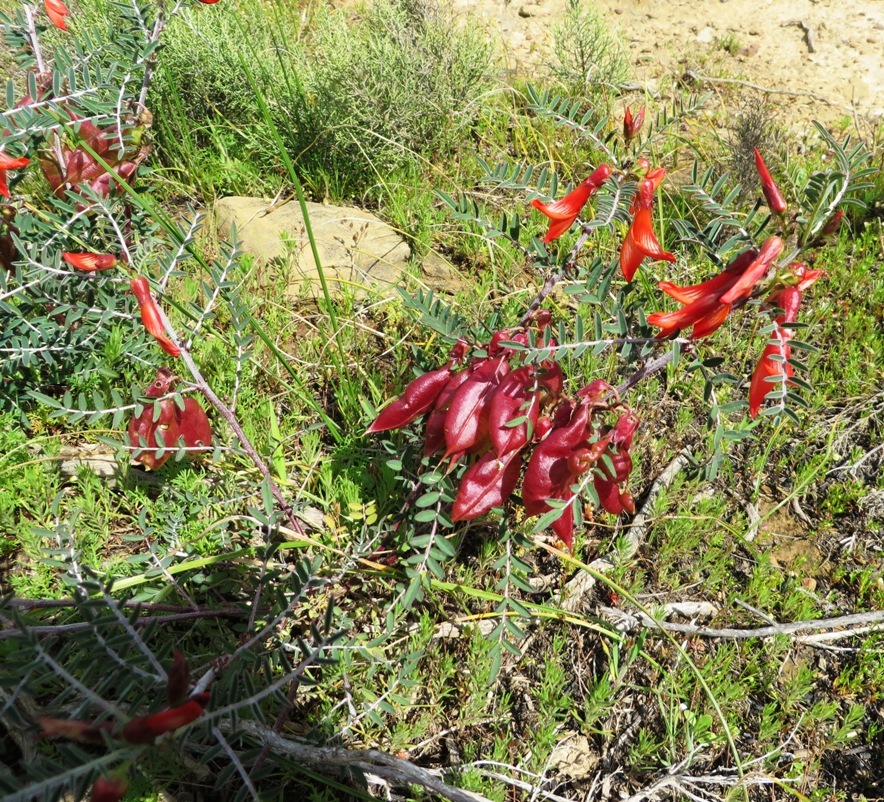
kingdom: Plantae
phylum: Tracheophyta
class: Magnoliopsida
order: Fabales
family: Fabaceae
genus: Lessertia
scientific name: Lessertia frutescens
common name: Balloon-pea
